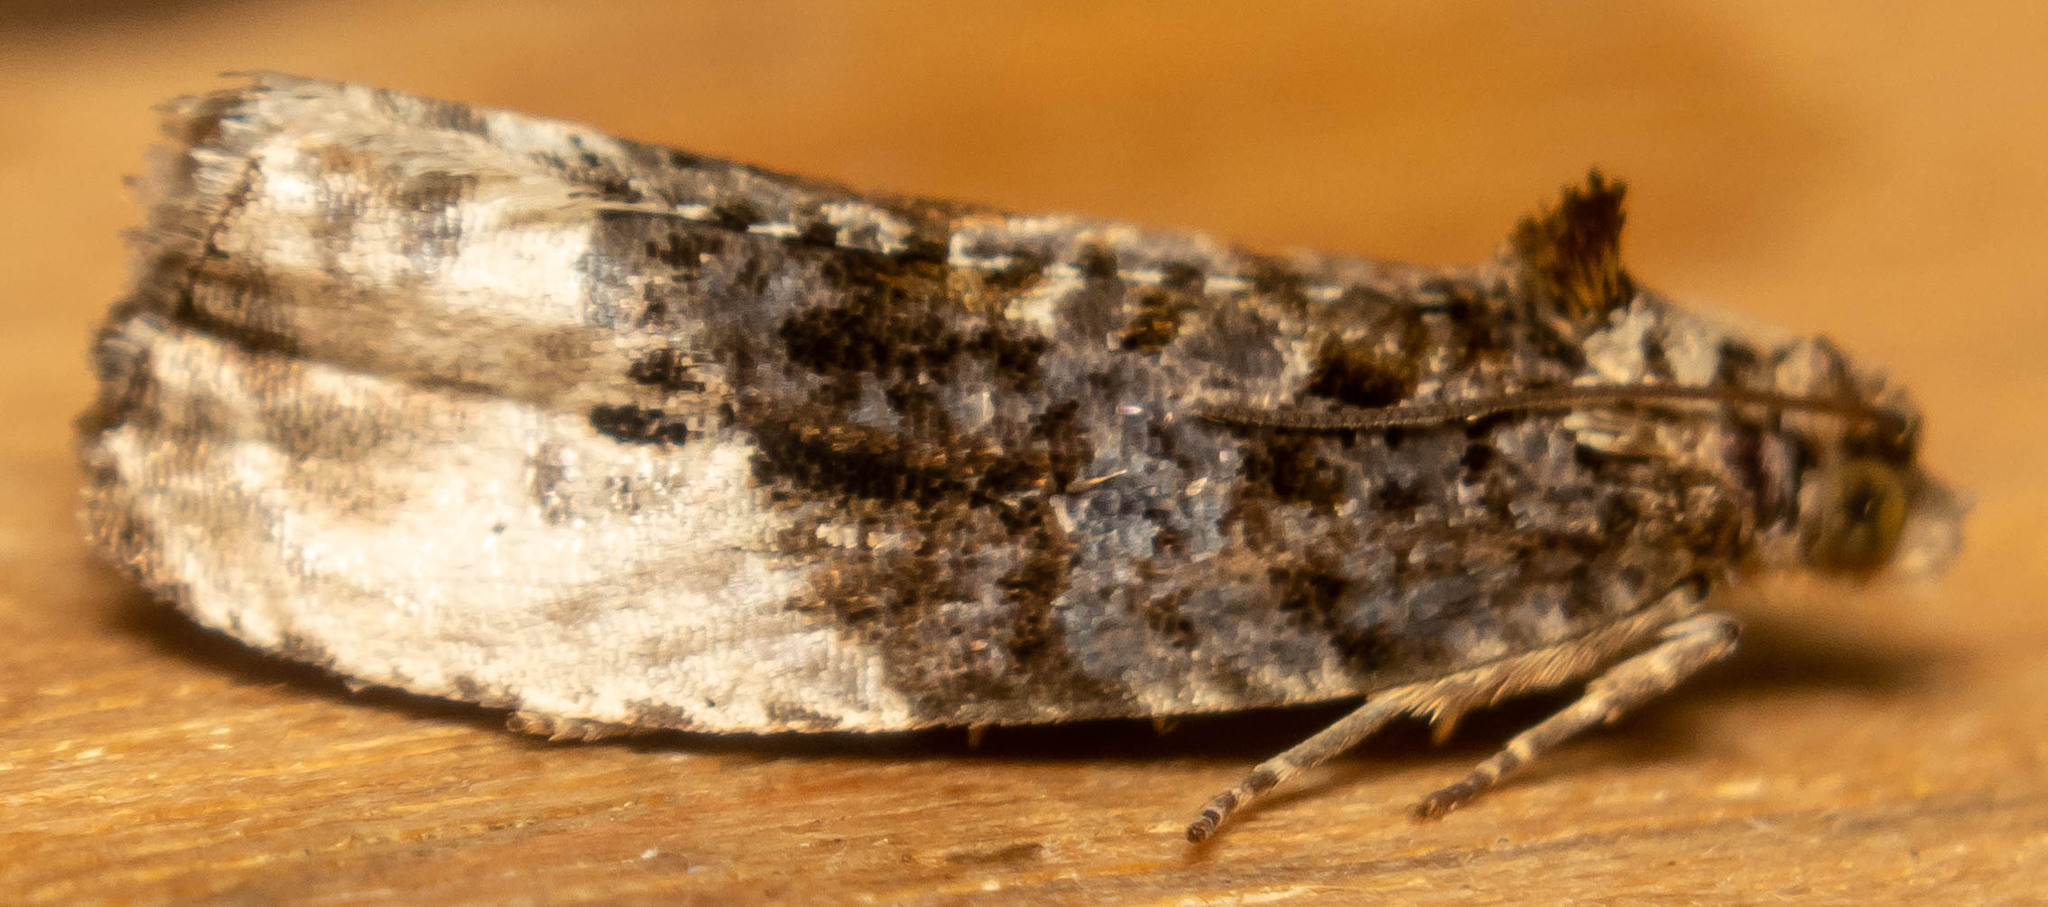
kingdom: Animalia
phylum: Arthropoda
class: Insecta
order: Lepidoptera
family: Tortricidae
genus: Hedya
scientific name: Hedya nubiferana
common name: Marbled orchard tortrix
